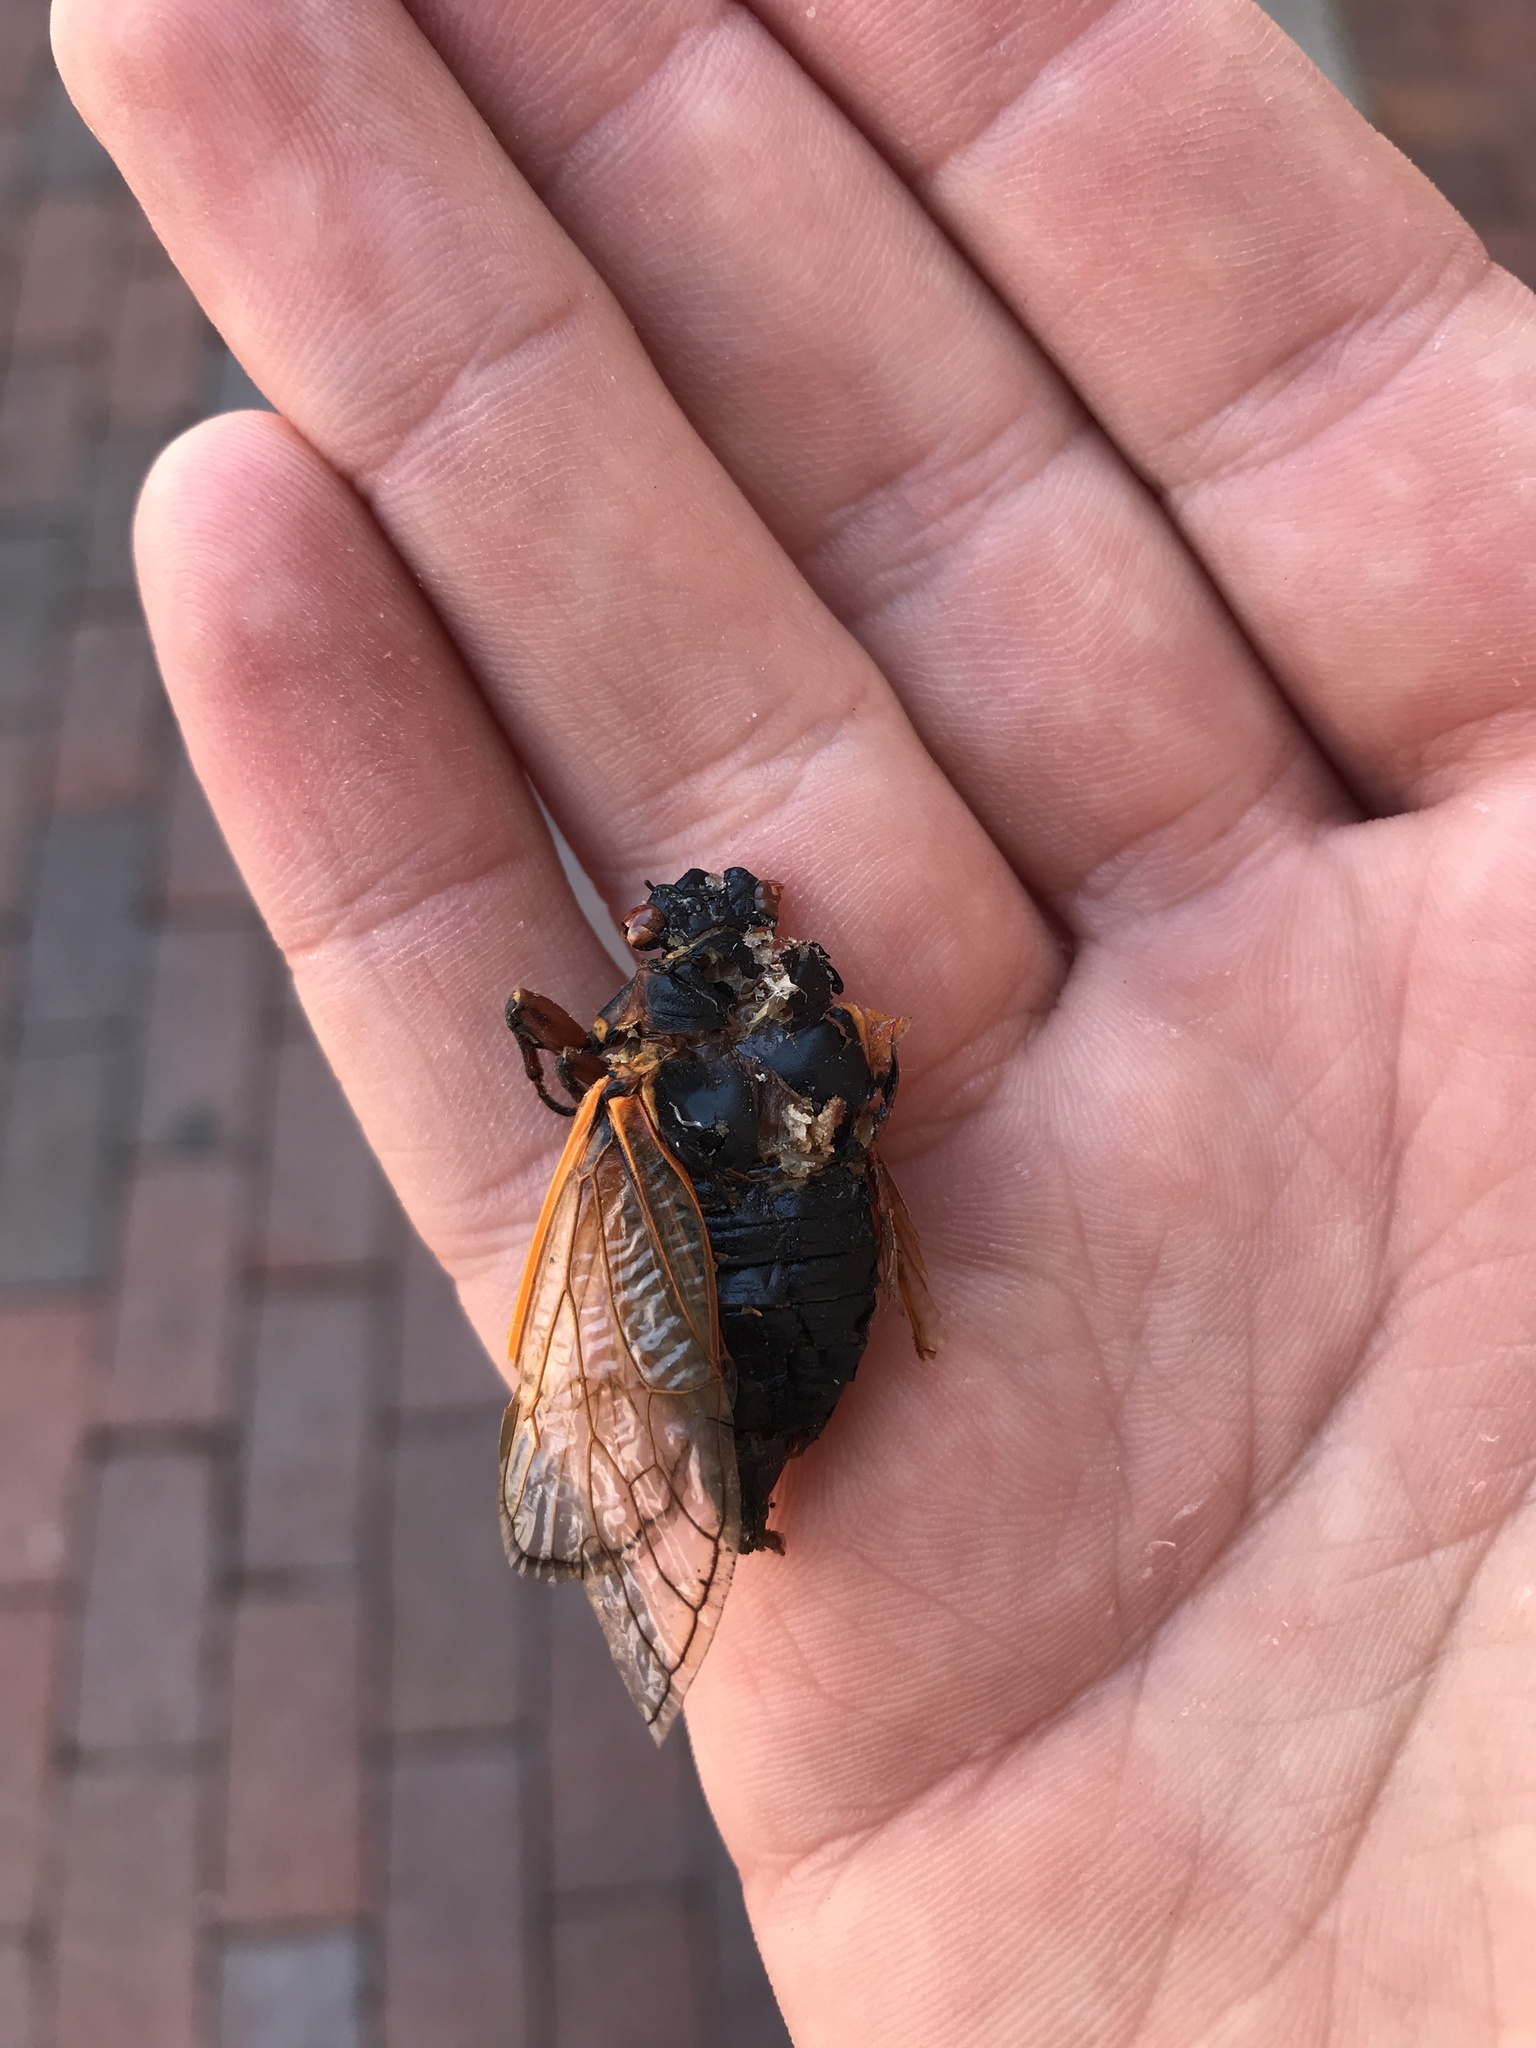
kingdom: Animalia
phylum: Arthropoda
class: Insecta
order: Hemiptera
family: Cicadidae
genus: Magicicada
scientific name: Magicicada septendecim
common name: Periodical cicada
